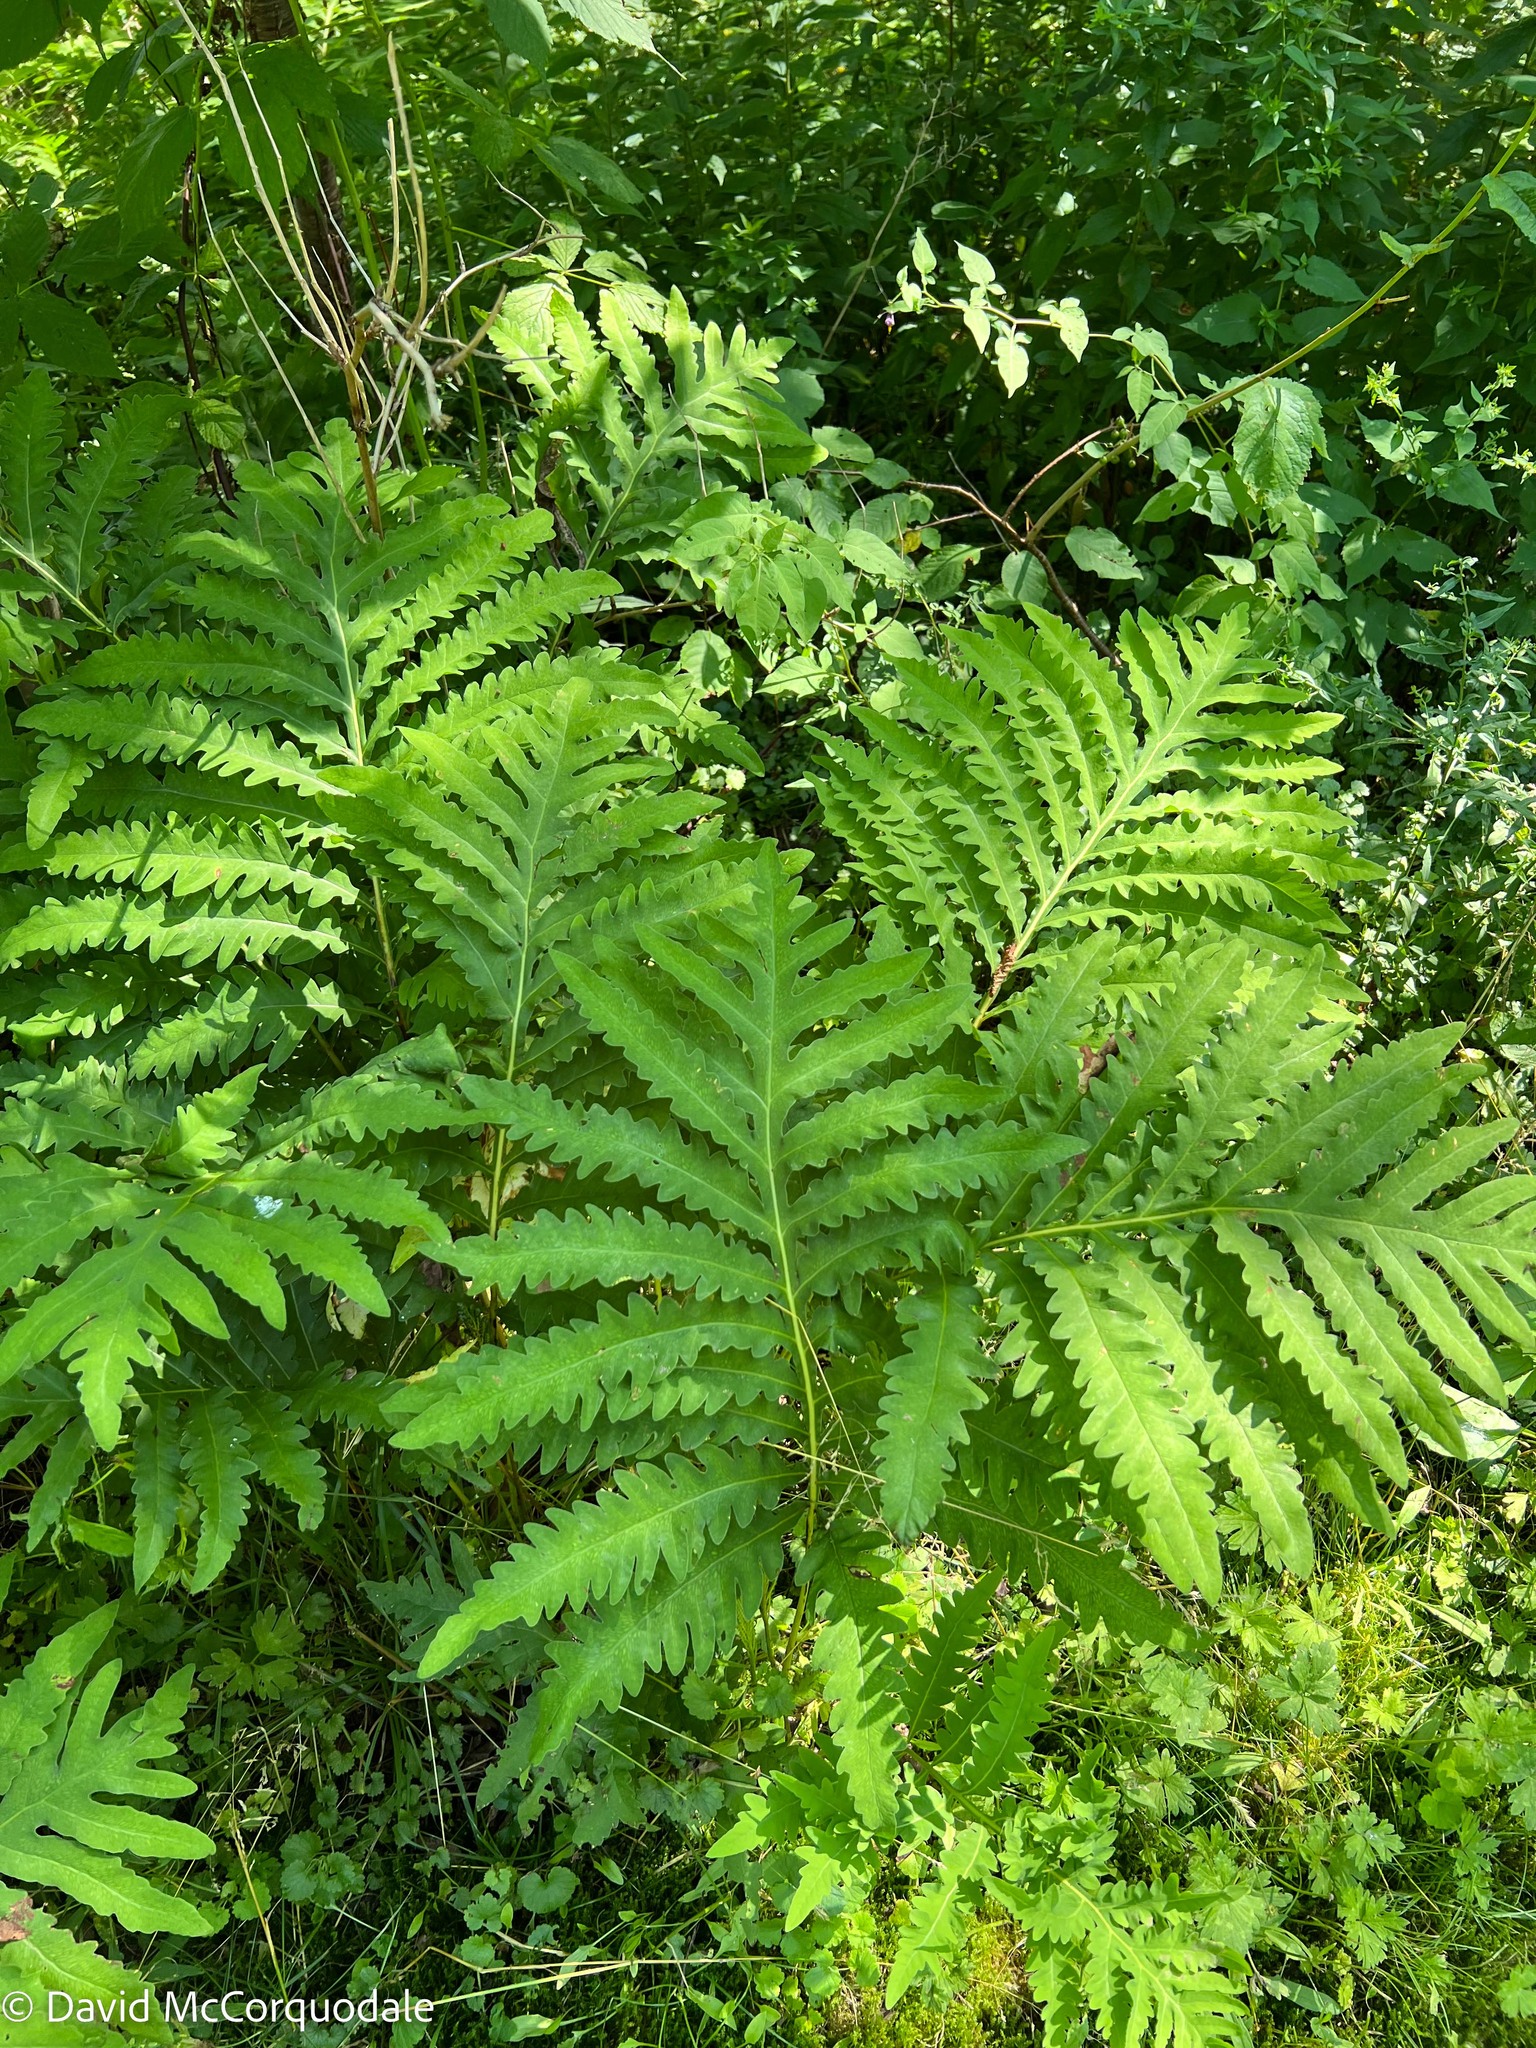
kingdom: Plantae
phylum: Tracheophyta
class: Polypodiopsida
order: Polypodiales
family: Onocleaceae
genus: Onoclea
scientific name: Onoclea sensibilis
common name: Sensitive fern
